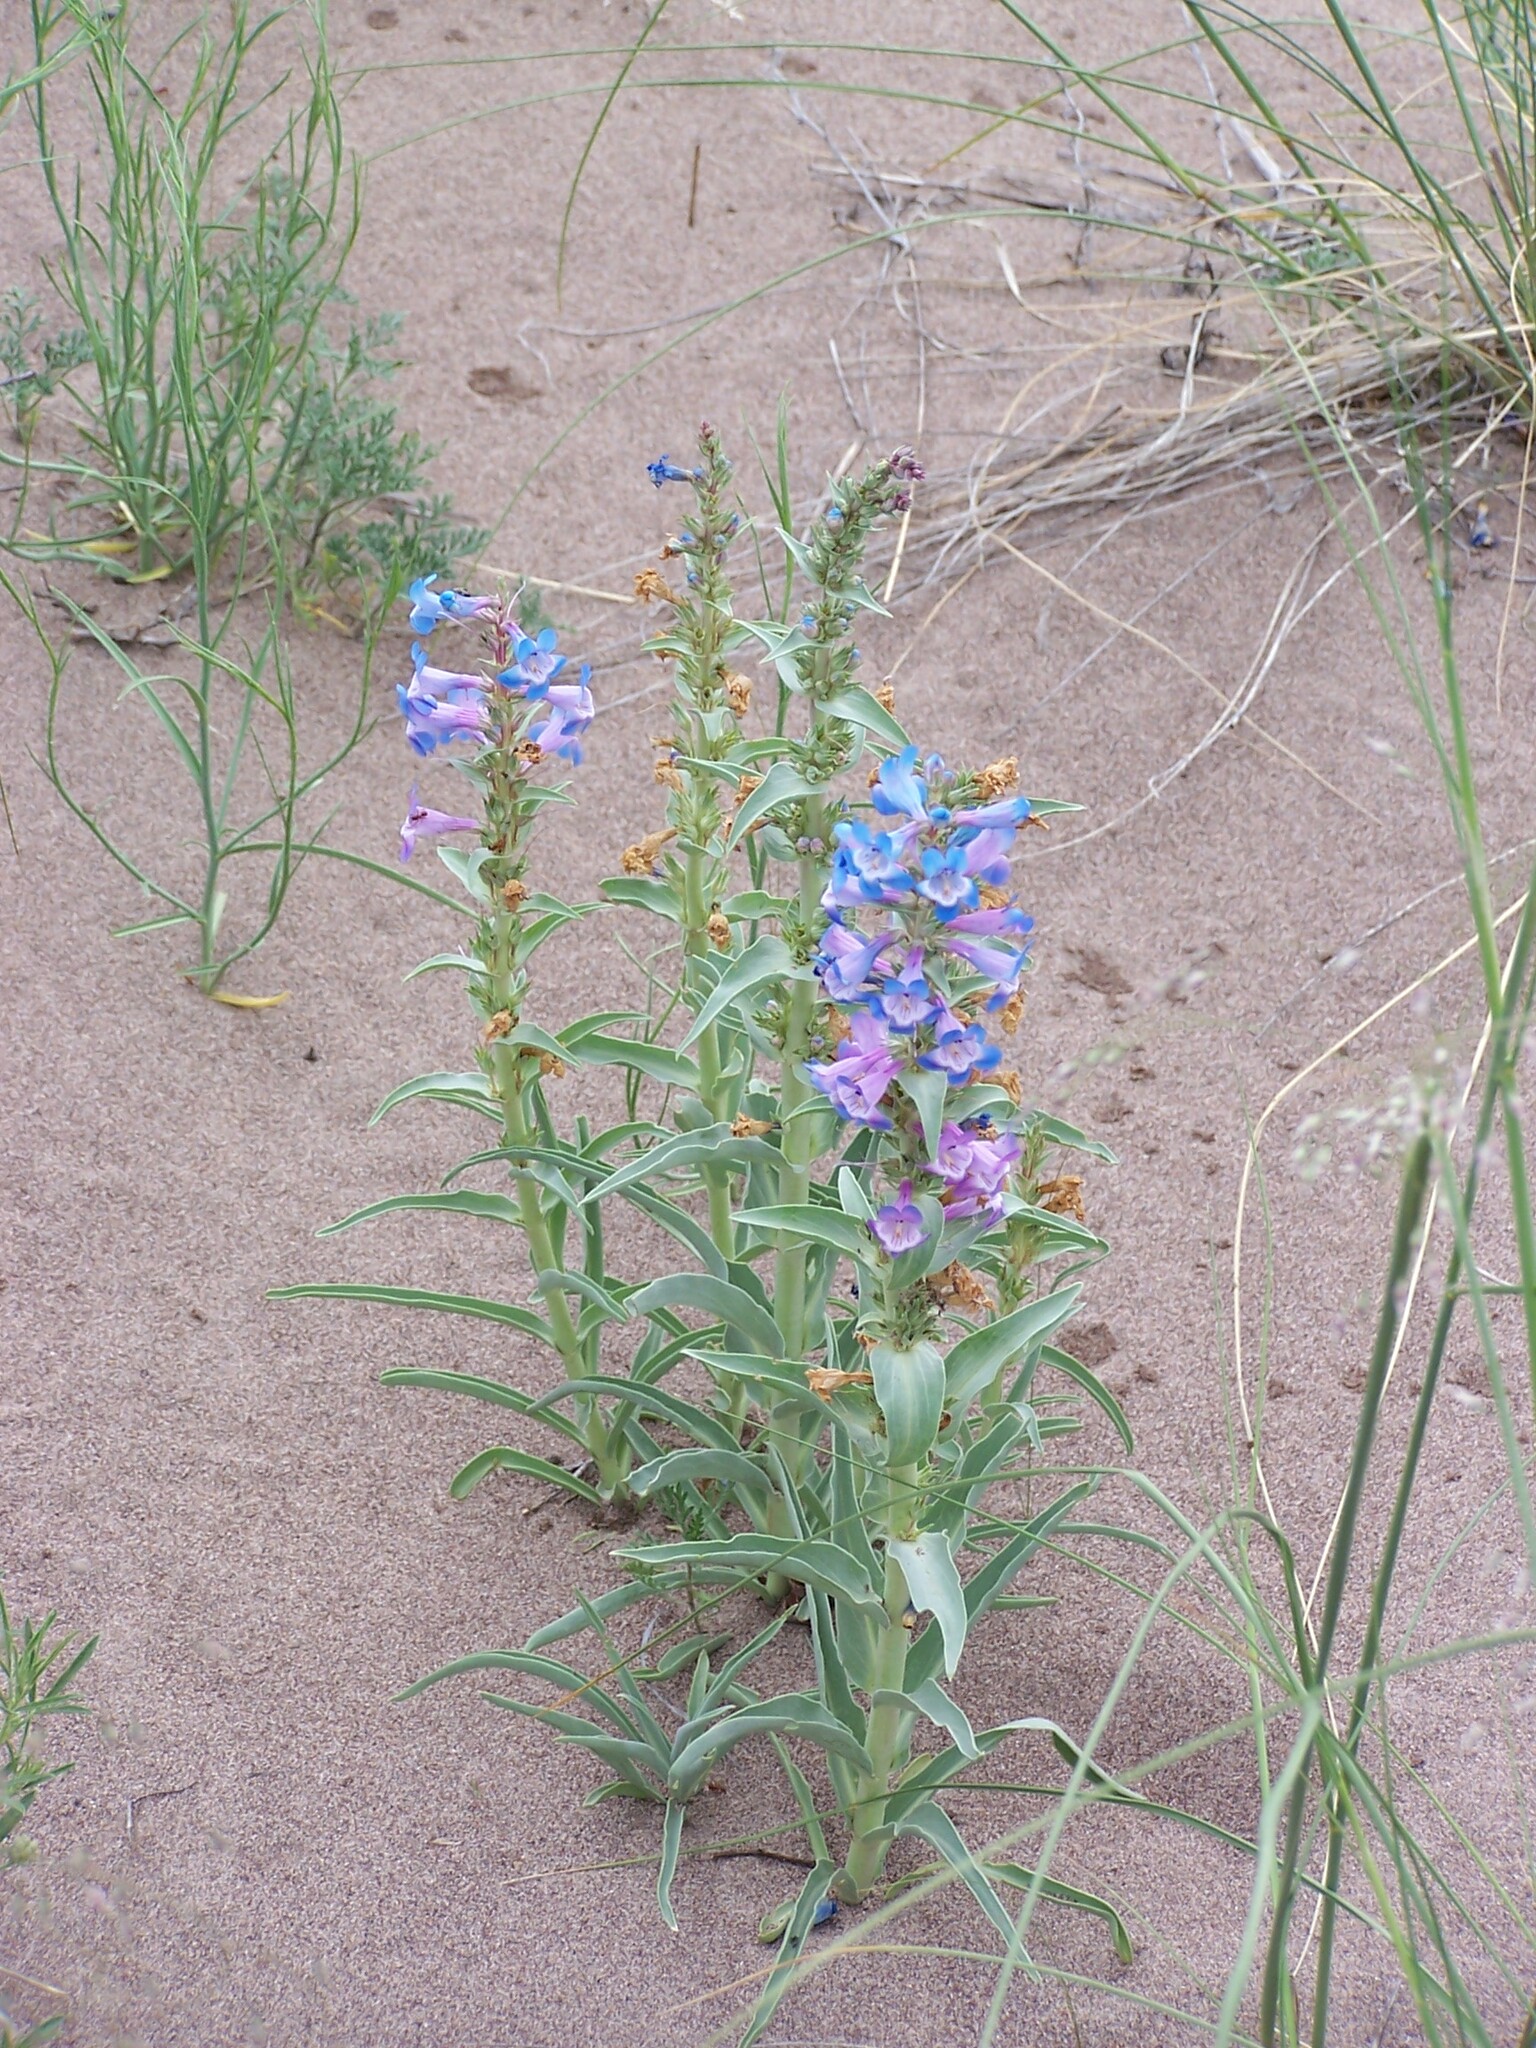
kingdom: Plantae
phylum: Tracheophyta
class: Magnoliopsida
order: Lamiales
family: Plantaginaceae
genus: Penstemon
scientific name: Penstemon angustifolius
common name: Narrow beardtongue
